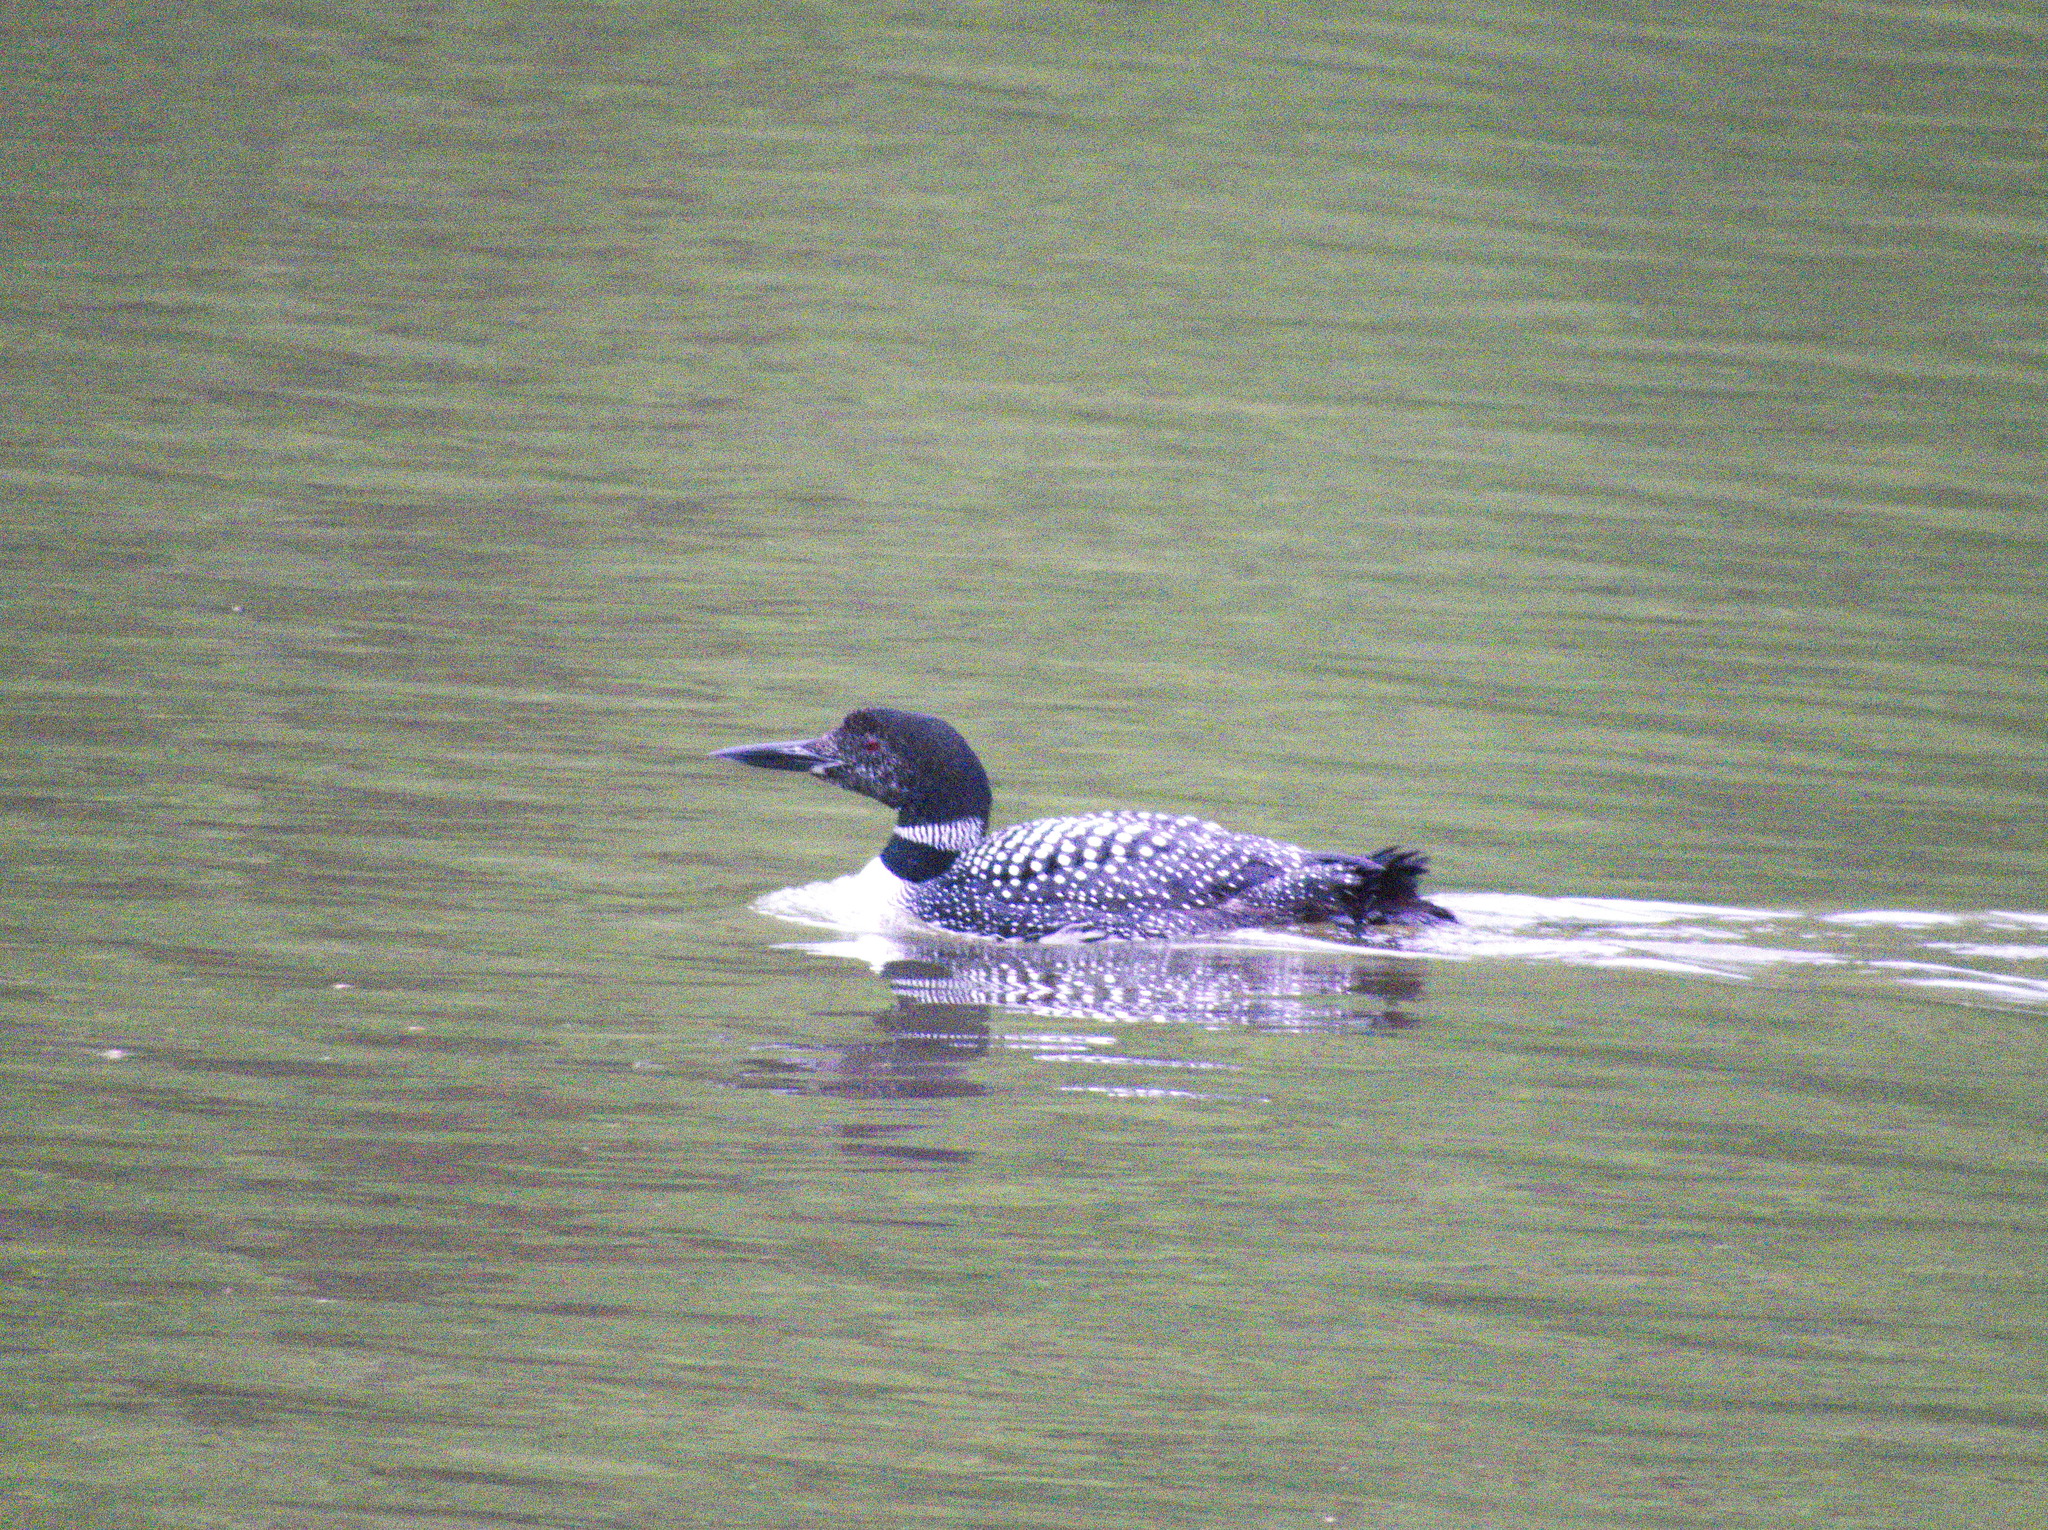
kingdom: Animalia
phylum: Chordata
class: Aves
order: Gaviiformes
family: Gaviidae
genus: Gavia
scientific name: Gavia immer
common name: Common loon
